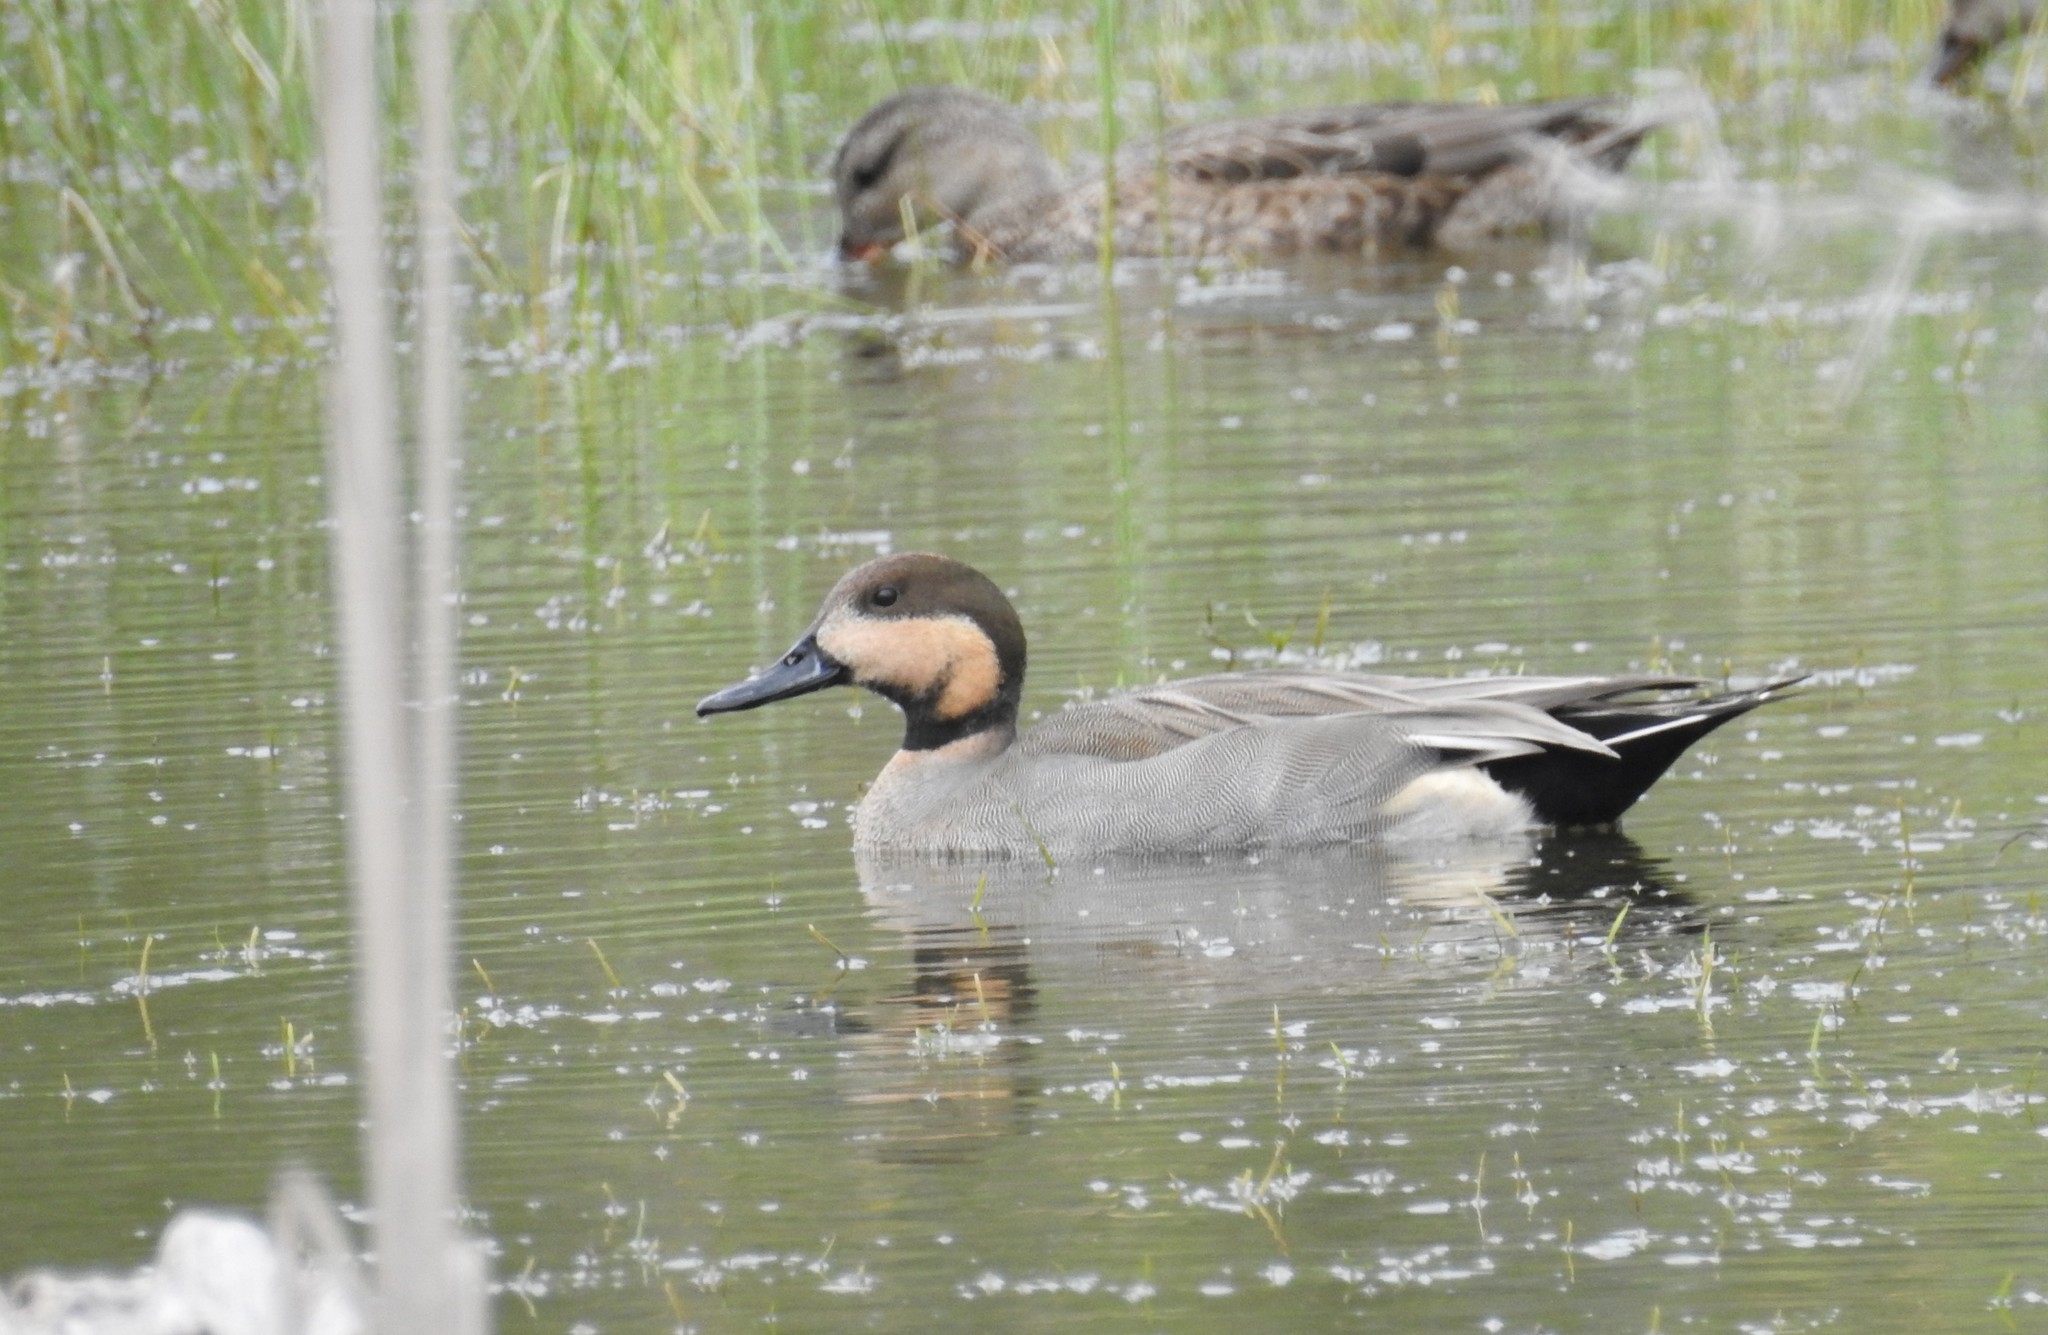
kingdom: Animalia
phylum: Chordata
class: Aves
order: Anseriformes
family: Anatidae
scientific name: Anatidae
